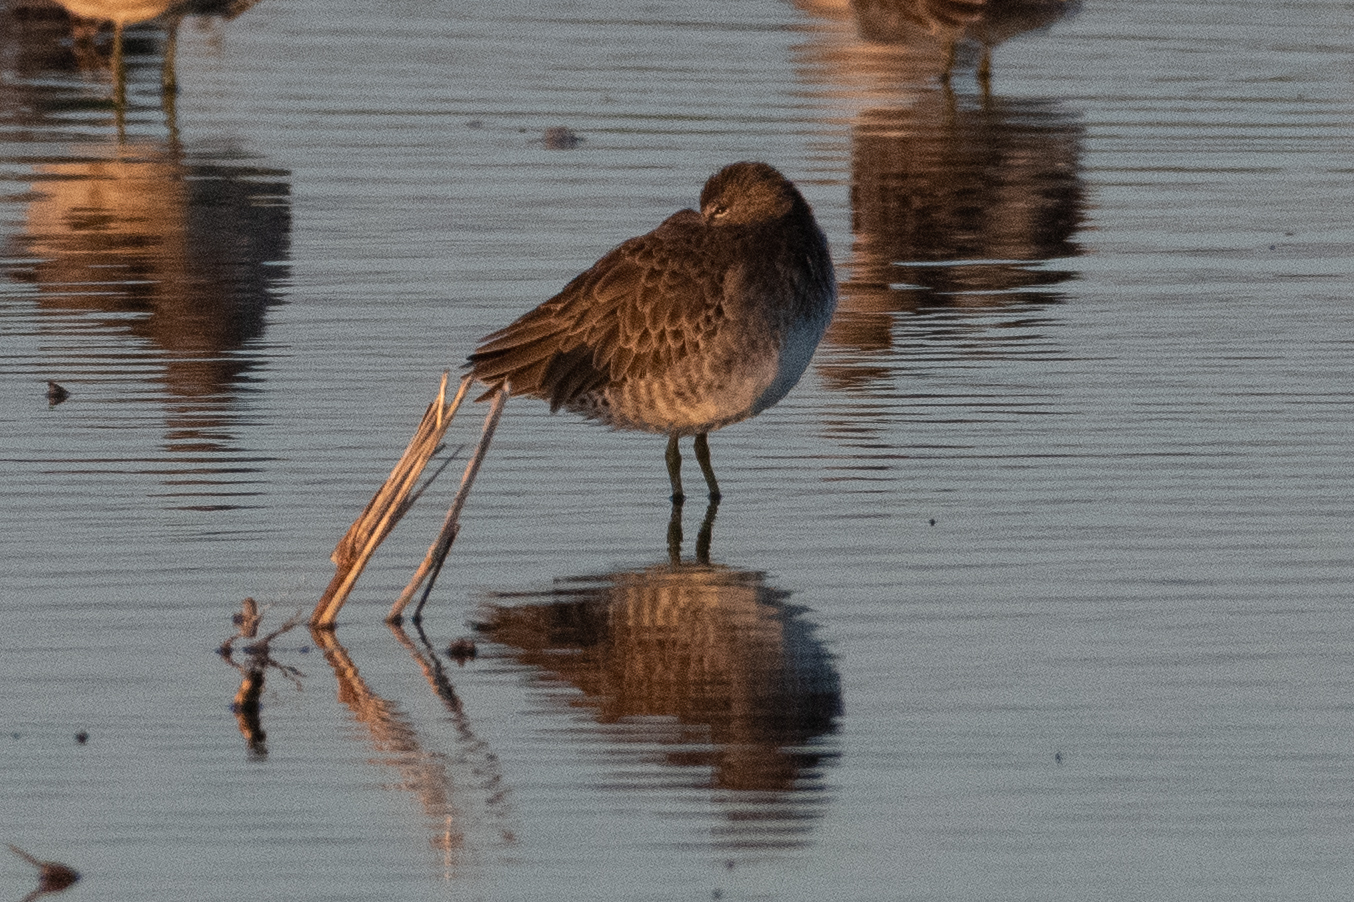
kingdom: Animalia
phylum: Chordata
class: Aves
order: Charadriiformes
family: Scolopacidae
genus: Limnodromus
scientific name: Limnodromus scolopaceus
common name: Long-billed dowitcher
